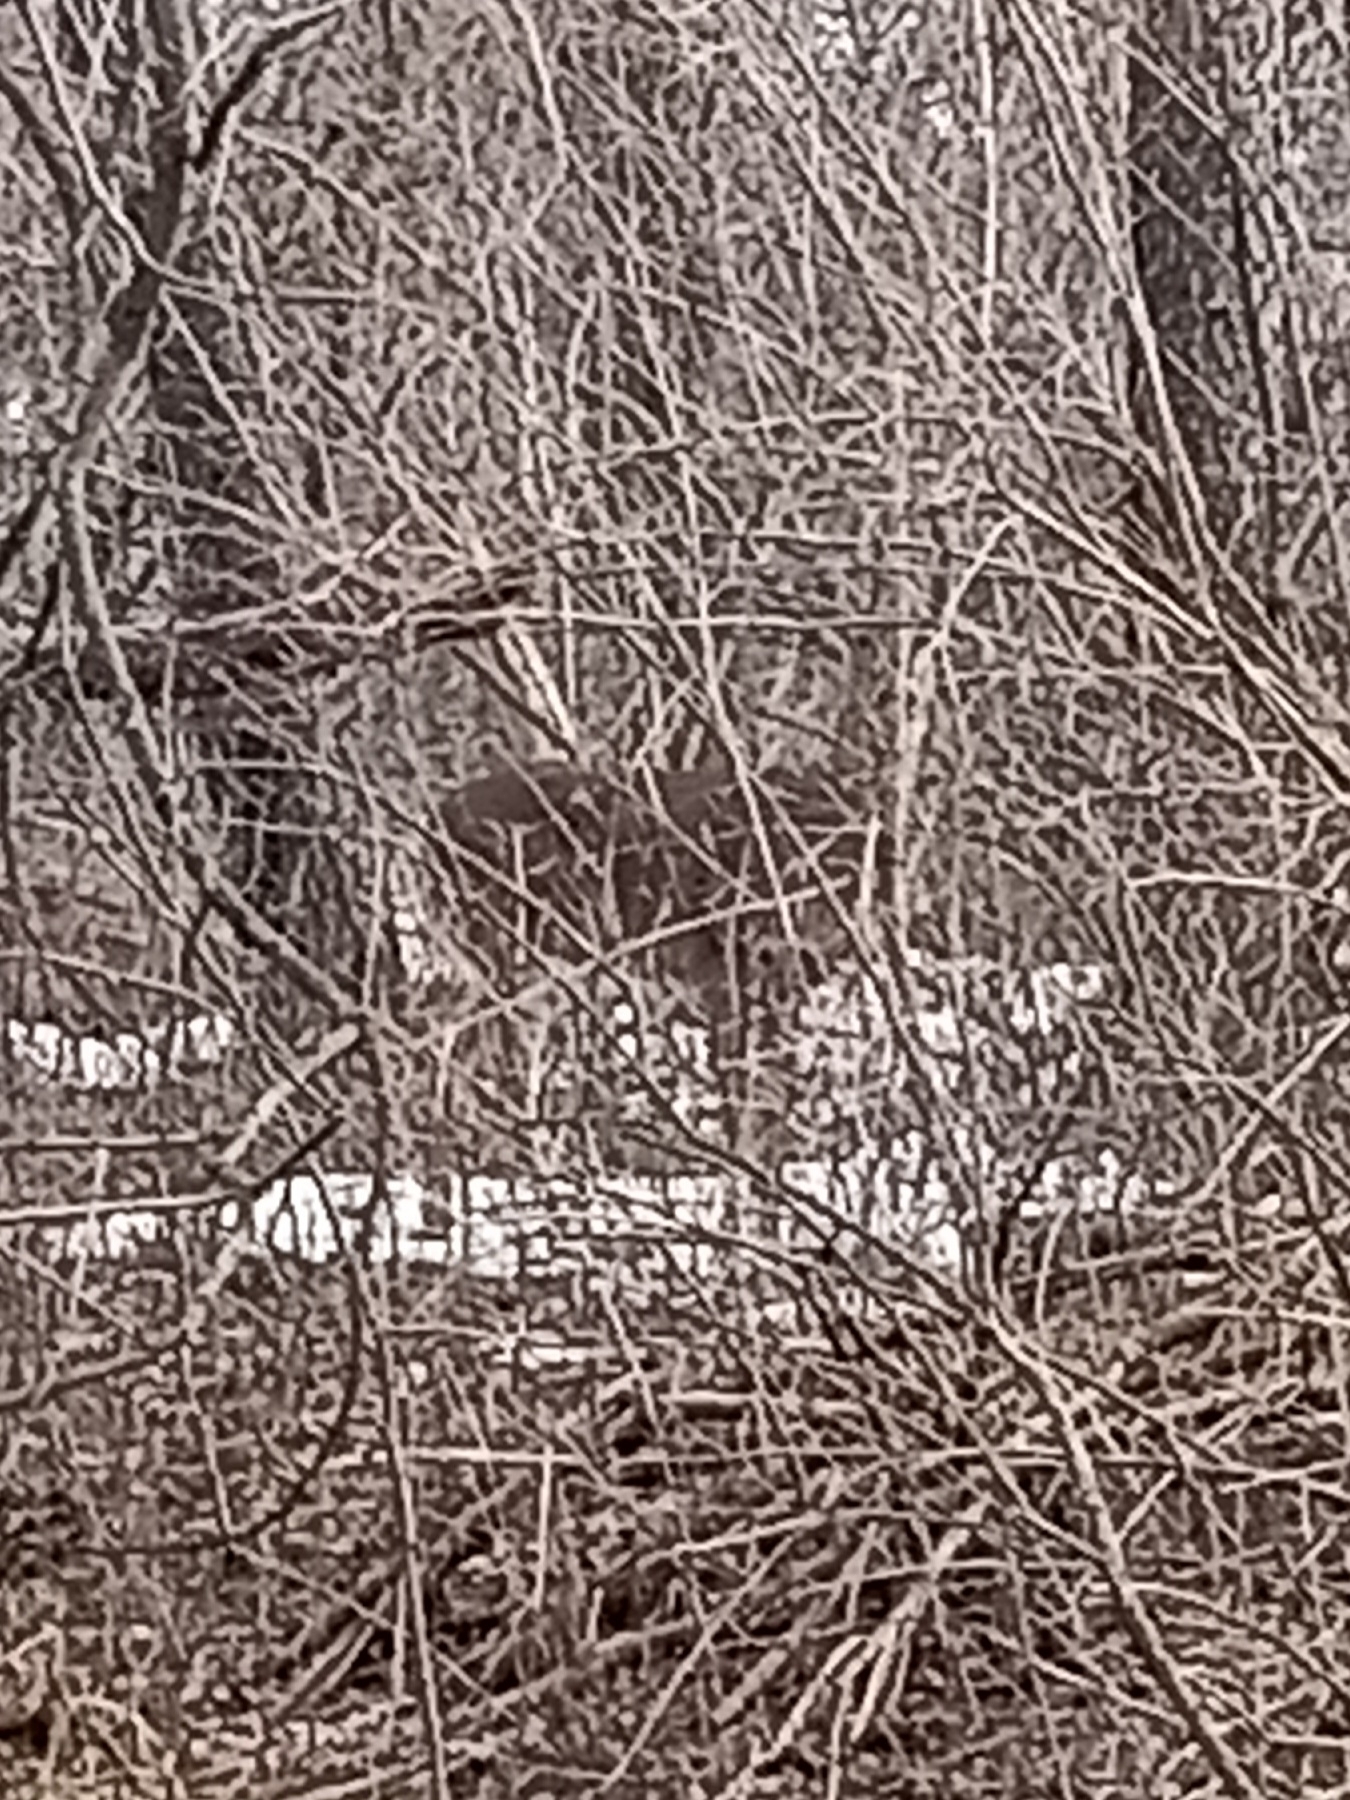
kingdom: Animalia
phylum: Chordata
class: Mammalia
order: Artiodactyla
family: Cervidae
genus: Odocoileus
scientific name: Odocoileus virginianus
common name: White-tailed deer
